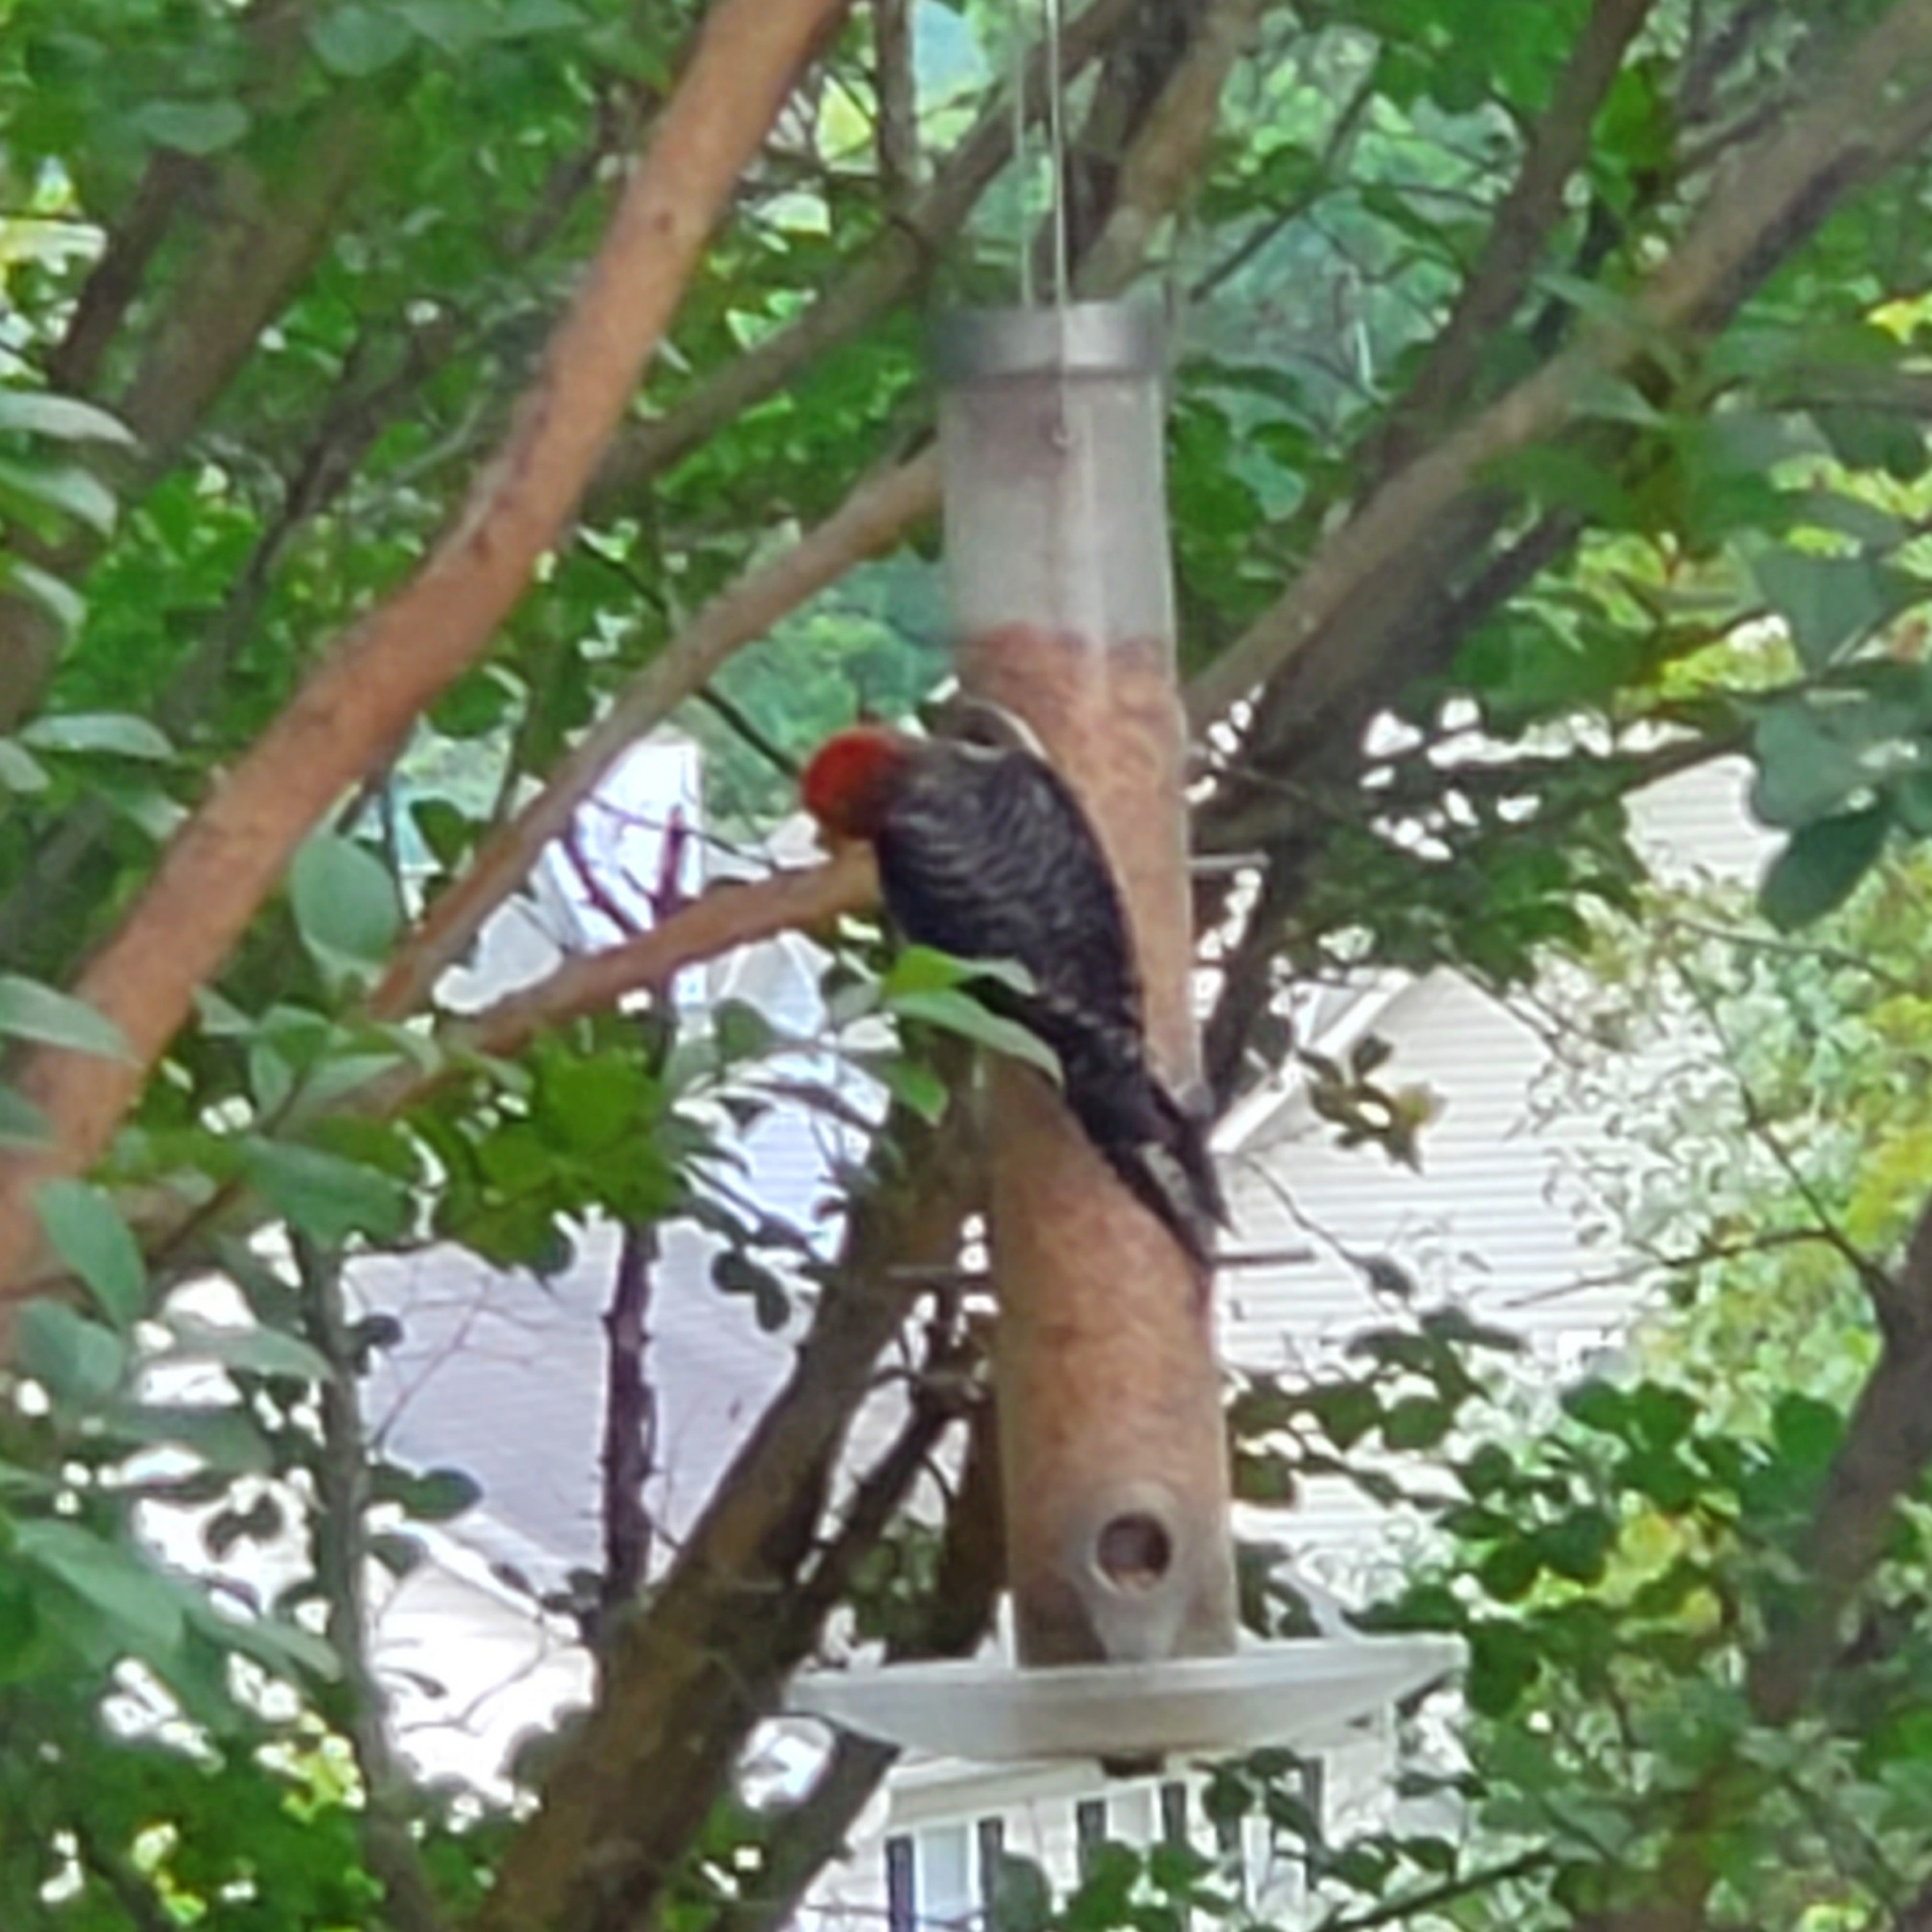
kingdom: Animalia
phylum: Chordata
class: Aves
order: Piciformes
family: Picidae
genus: Melanerpes
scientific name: Melanerpes carolinus
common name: Red-bellied woodpecker
